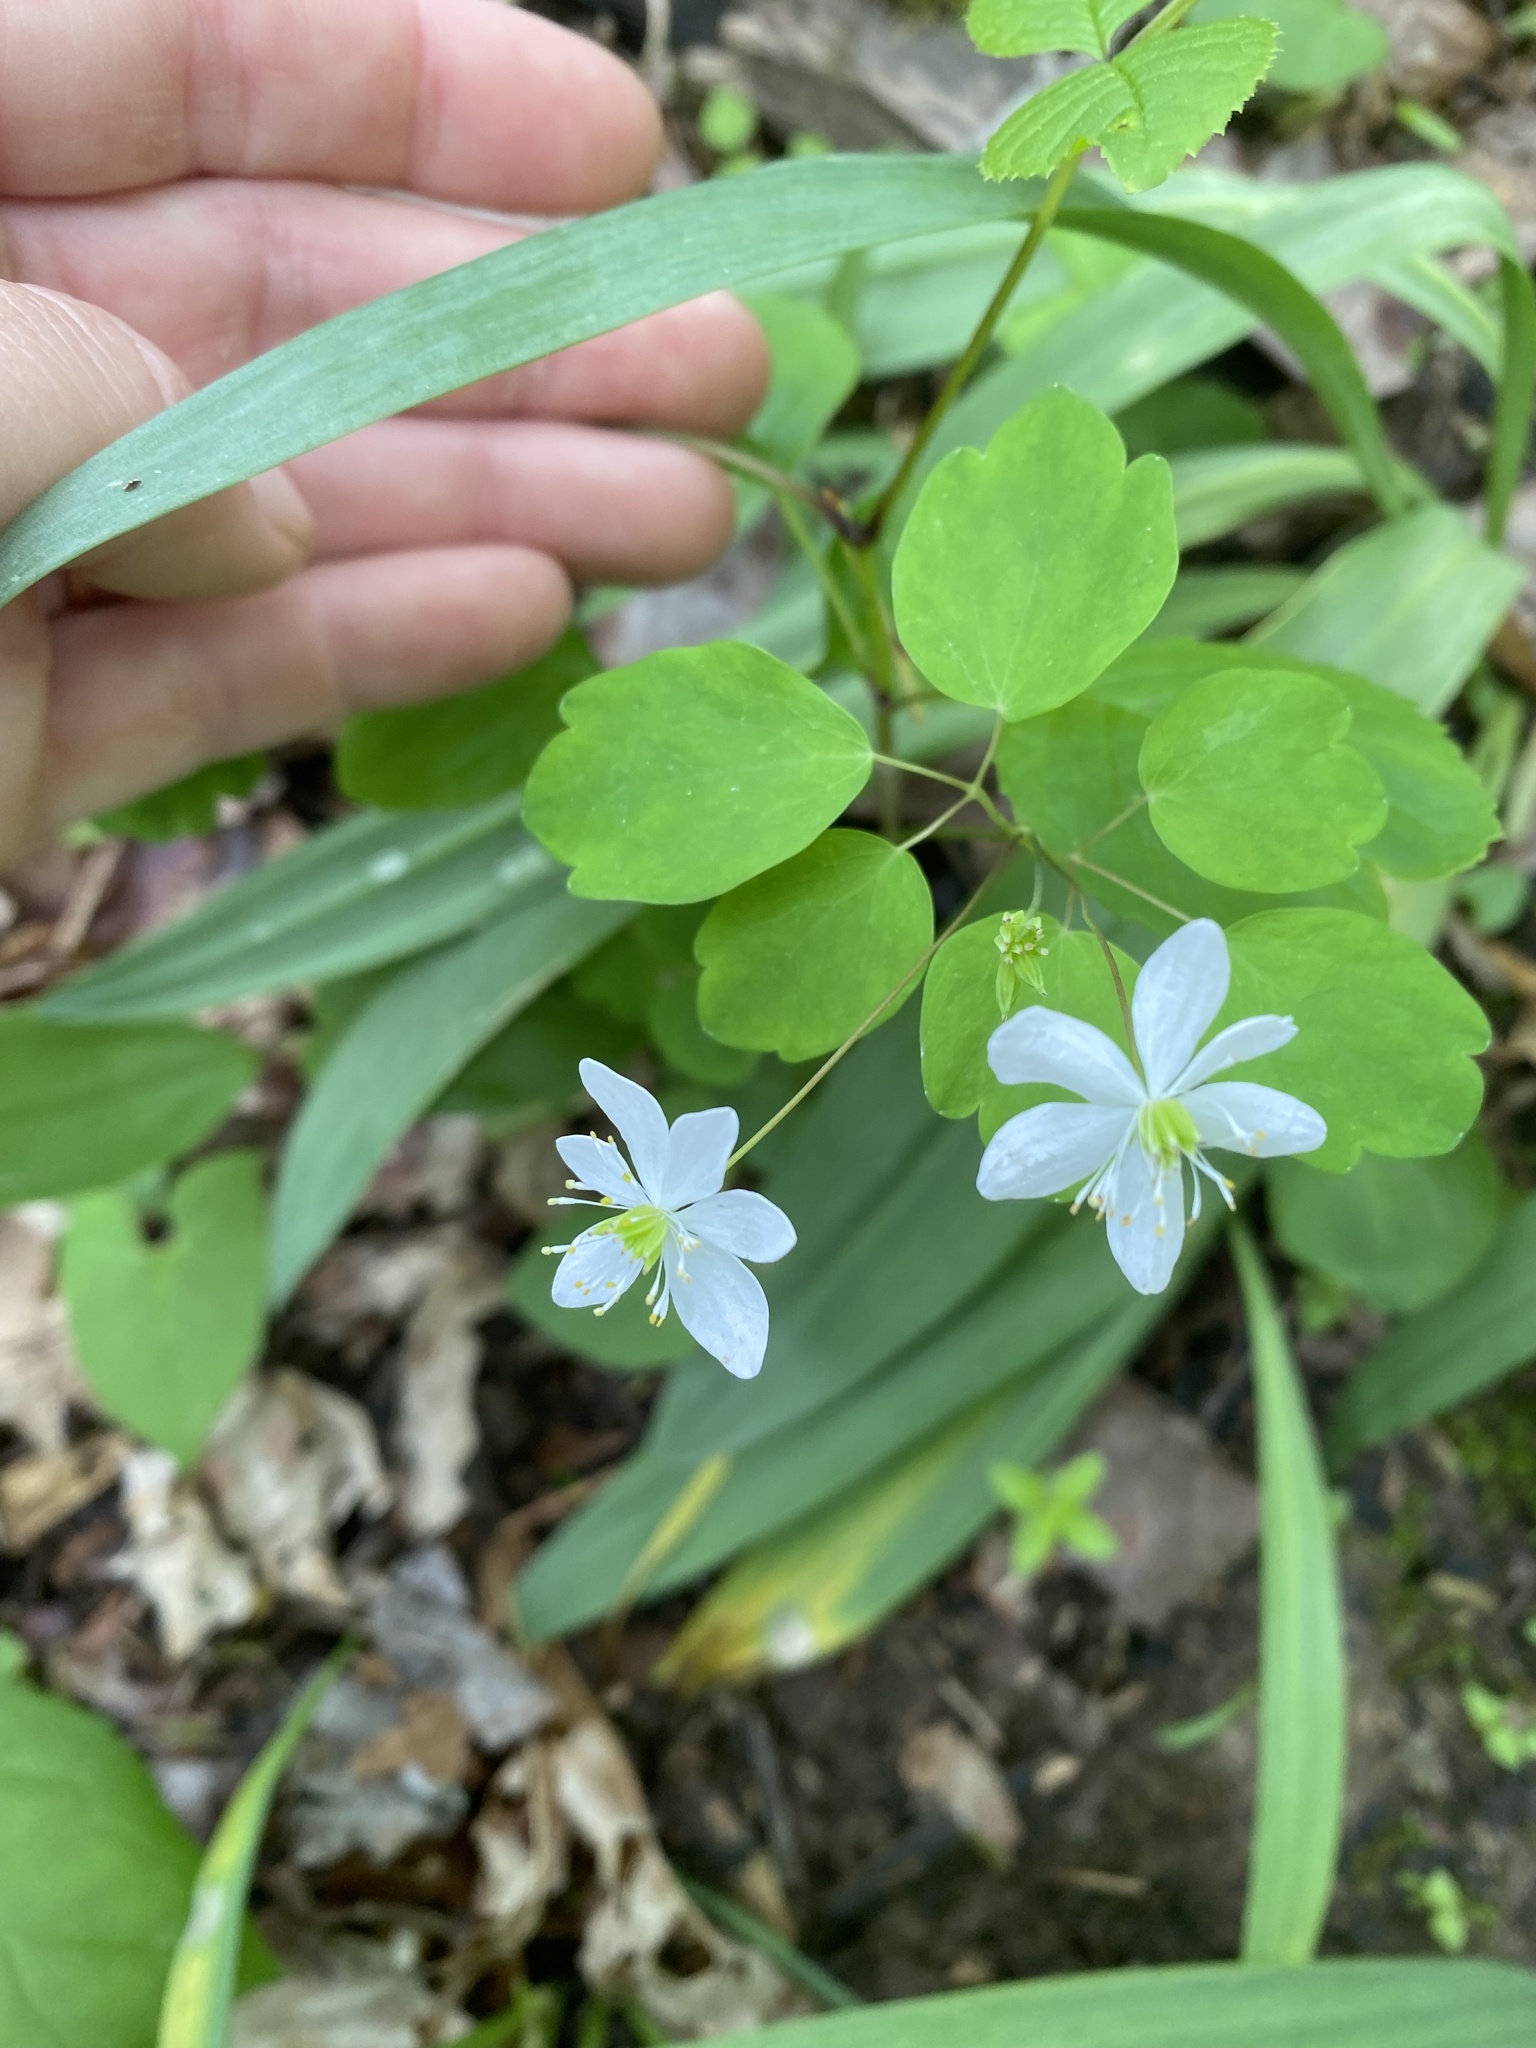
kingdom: Plantae
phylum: Tracheophyta
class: Magnoliopsida
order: Ranunculales
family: Ranunculaceae
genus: Thalictrum
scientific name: Thalictrum thalictroides
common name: Rue-anemone
